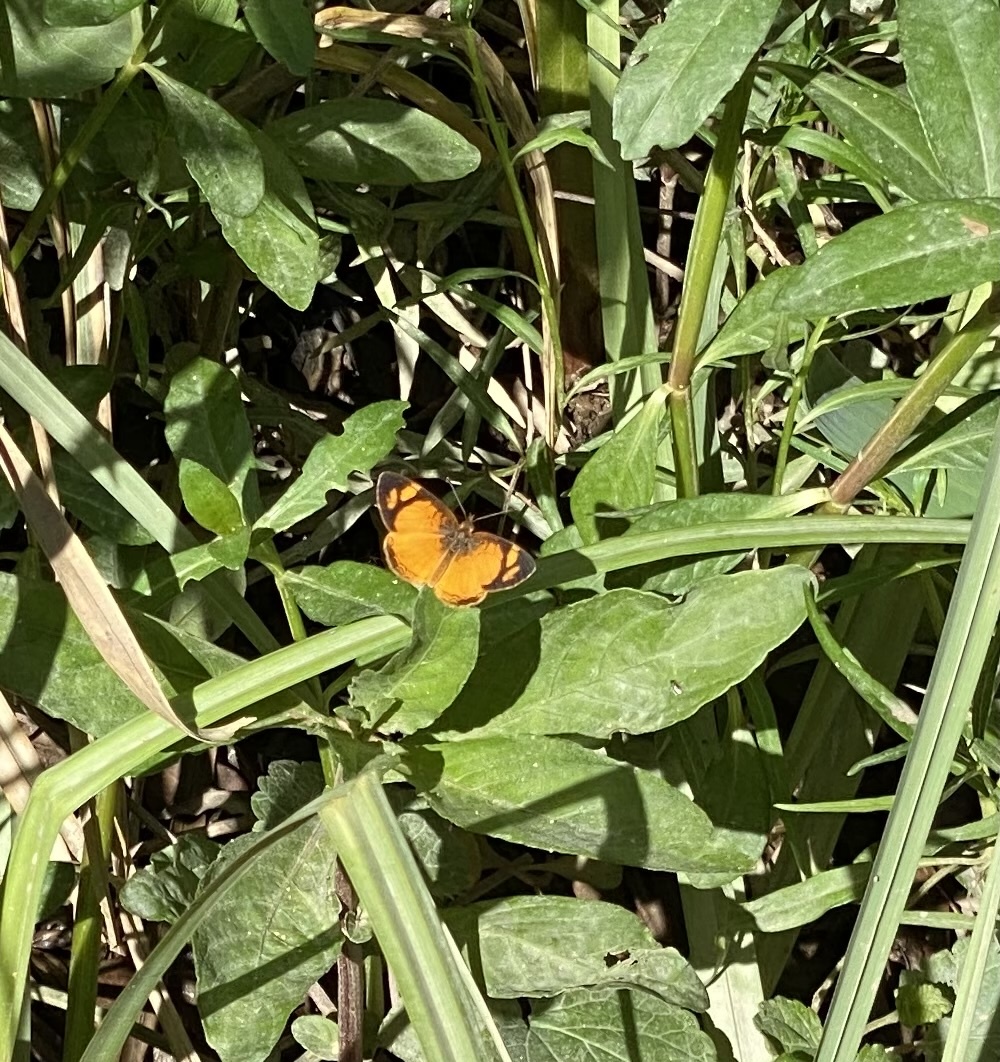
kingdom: Animalia
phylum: Arthropoda
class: Insecta
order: Lepidoptera
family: Nymphalidae
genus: Tegosa
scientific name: Tegosa claudina
